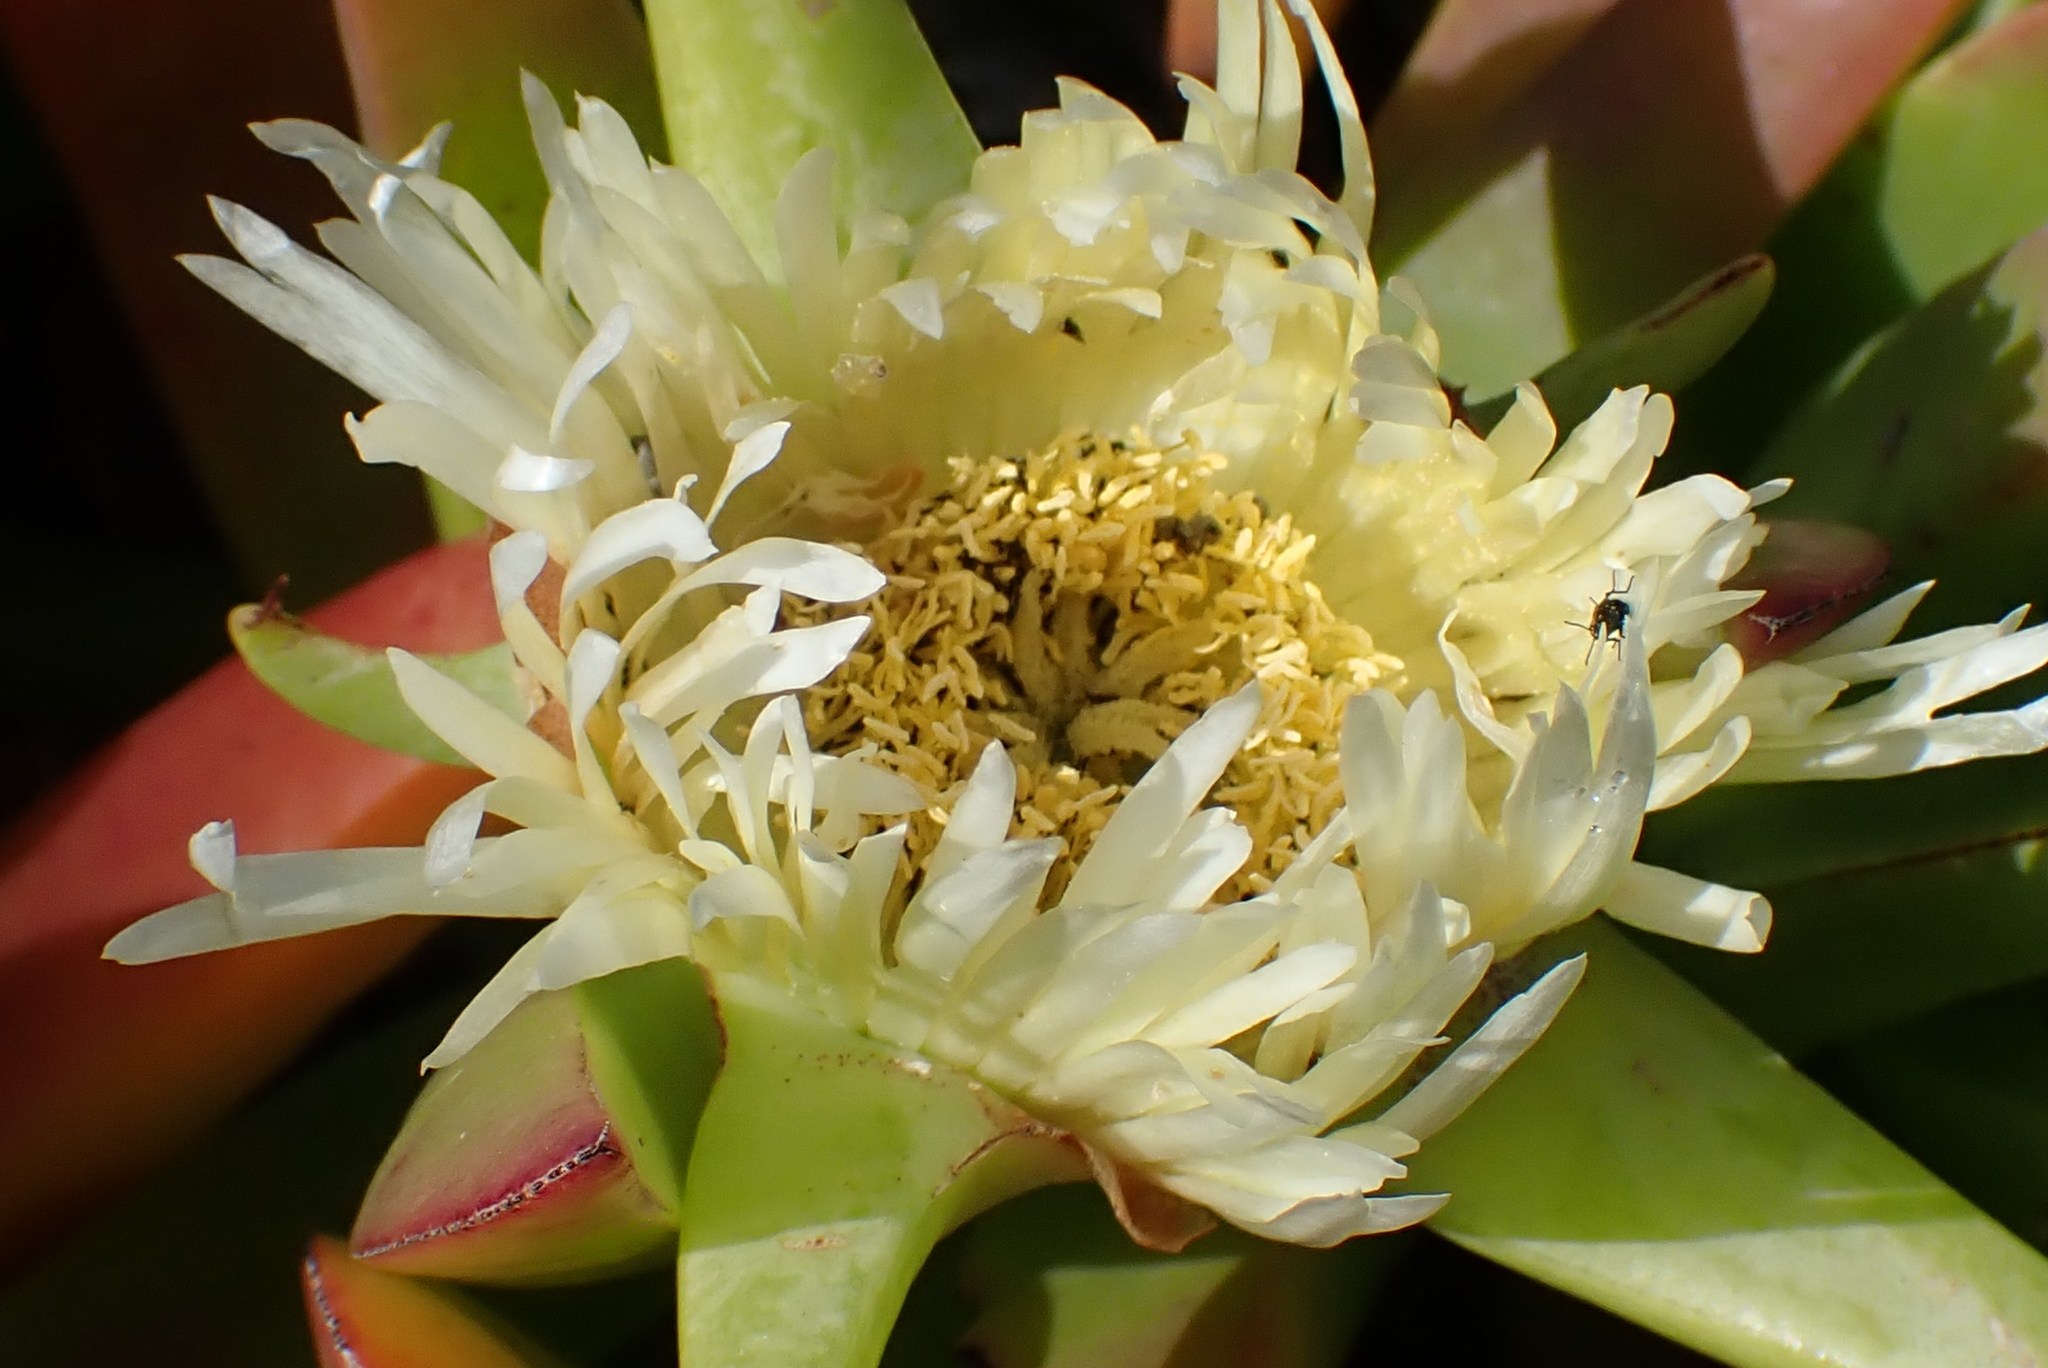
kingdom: Plantae
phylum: Tracheophyta
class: Magnoliopsida
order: Caryophyllales
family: Aizoaceae
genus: Carpobrotus
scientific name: Carpobrotus edulis
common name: Hottentot-fig
